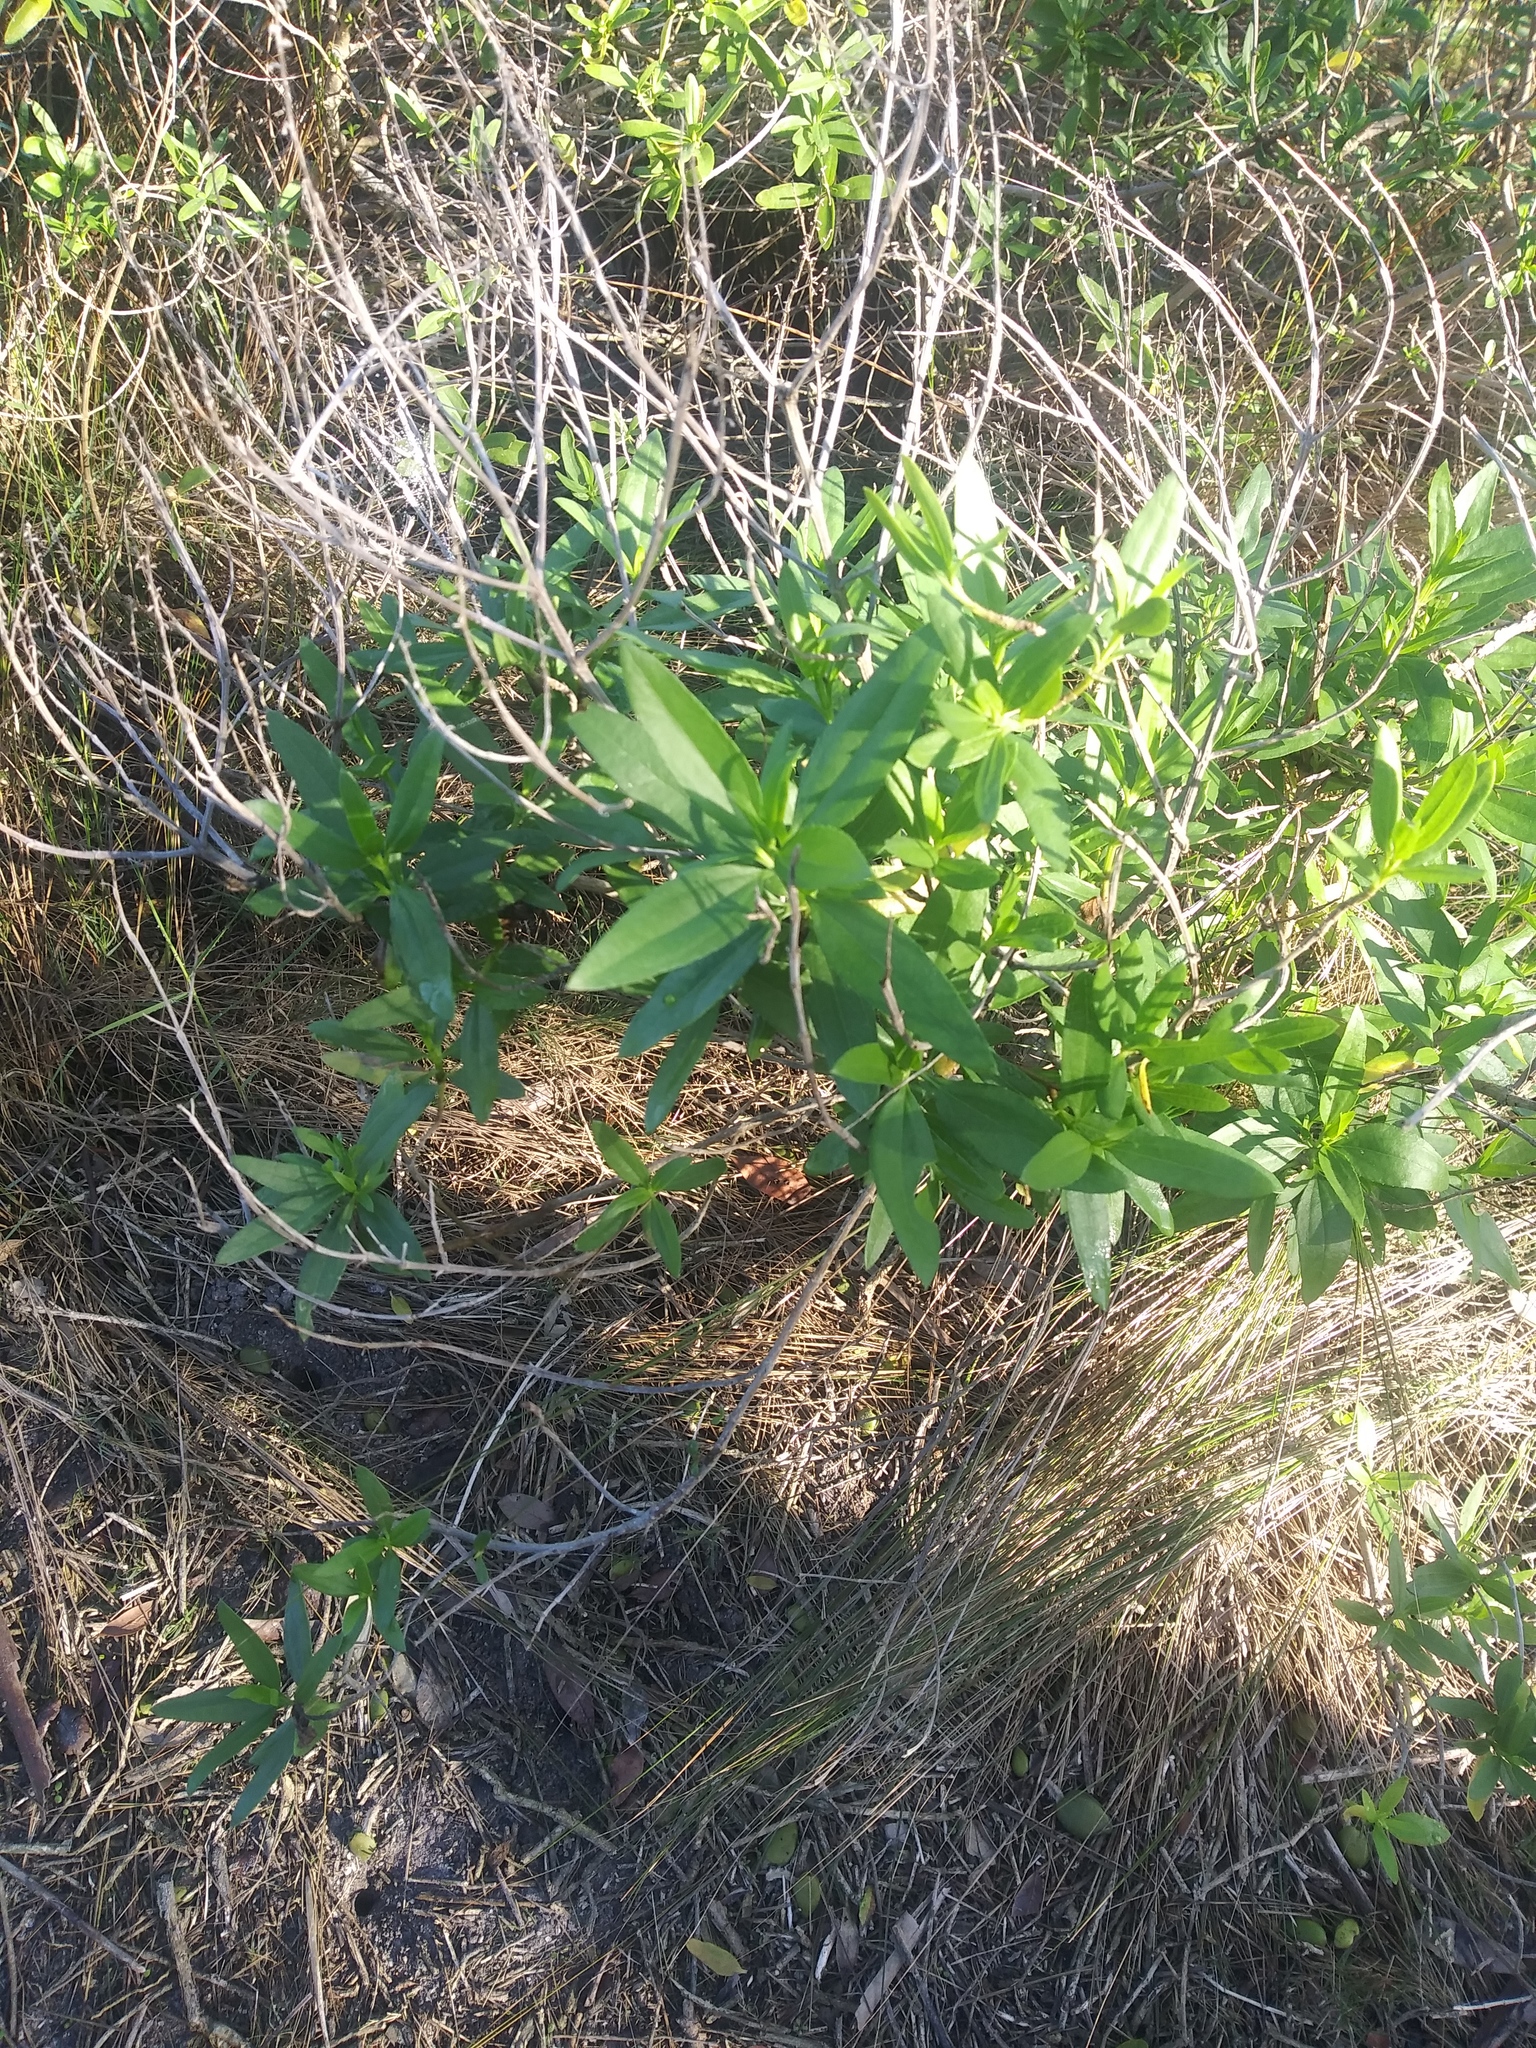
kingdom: Plantae
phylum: Tracheophyta
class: Magnoliopsida
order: Asterales
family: Asteraceae
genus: Iva
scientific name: Iva frutescens
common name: Big-leaved marsh-elder
